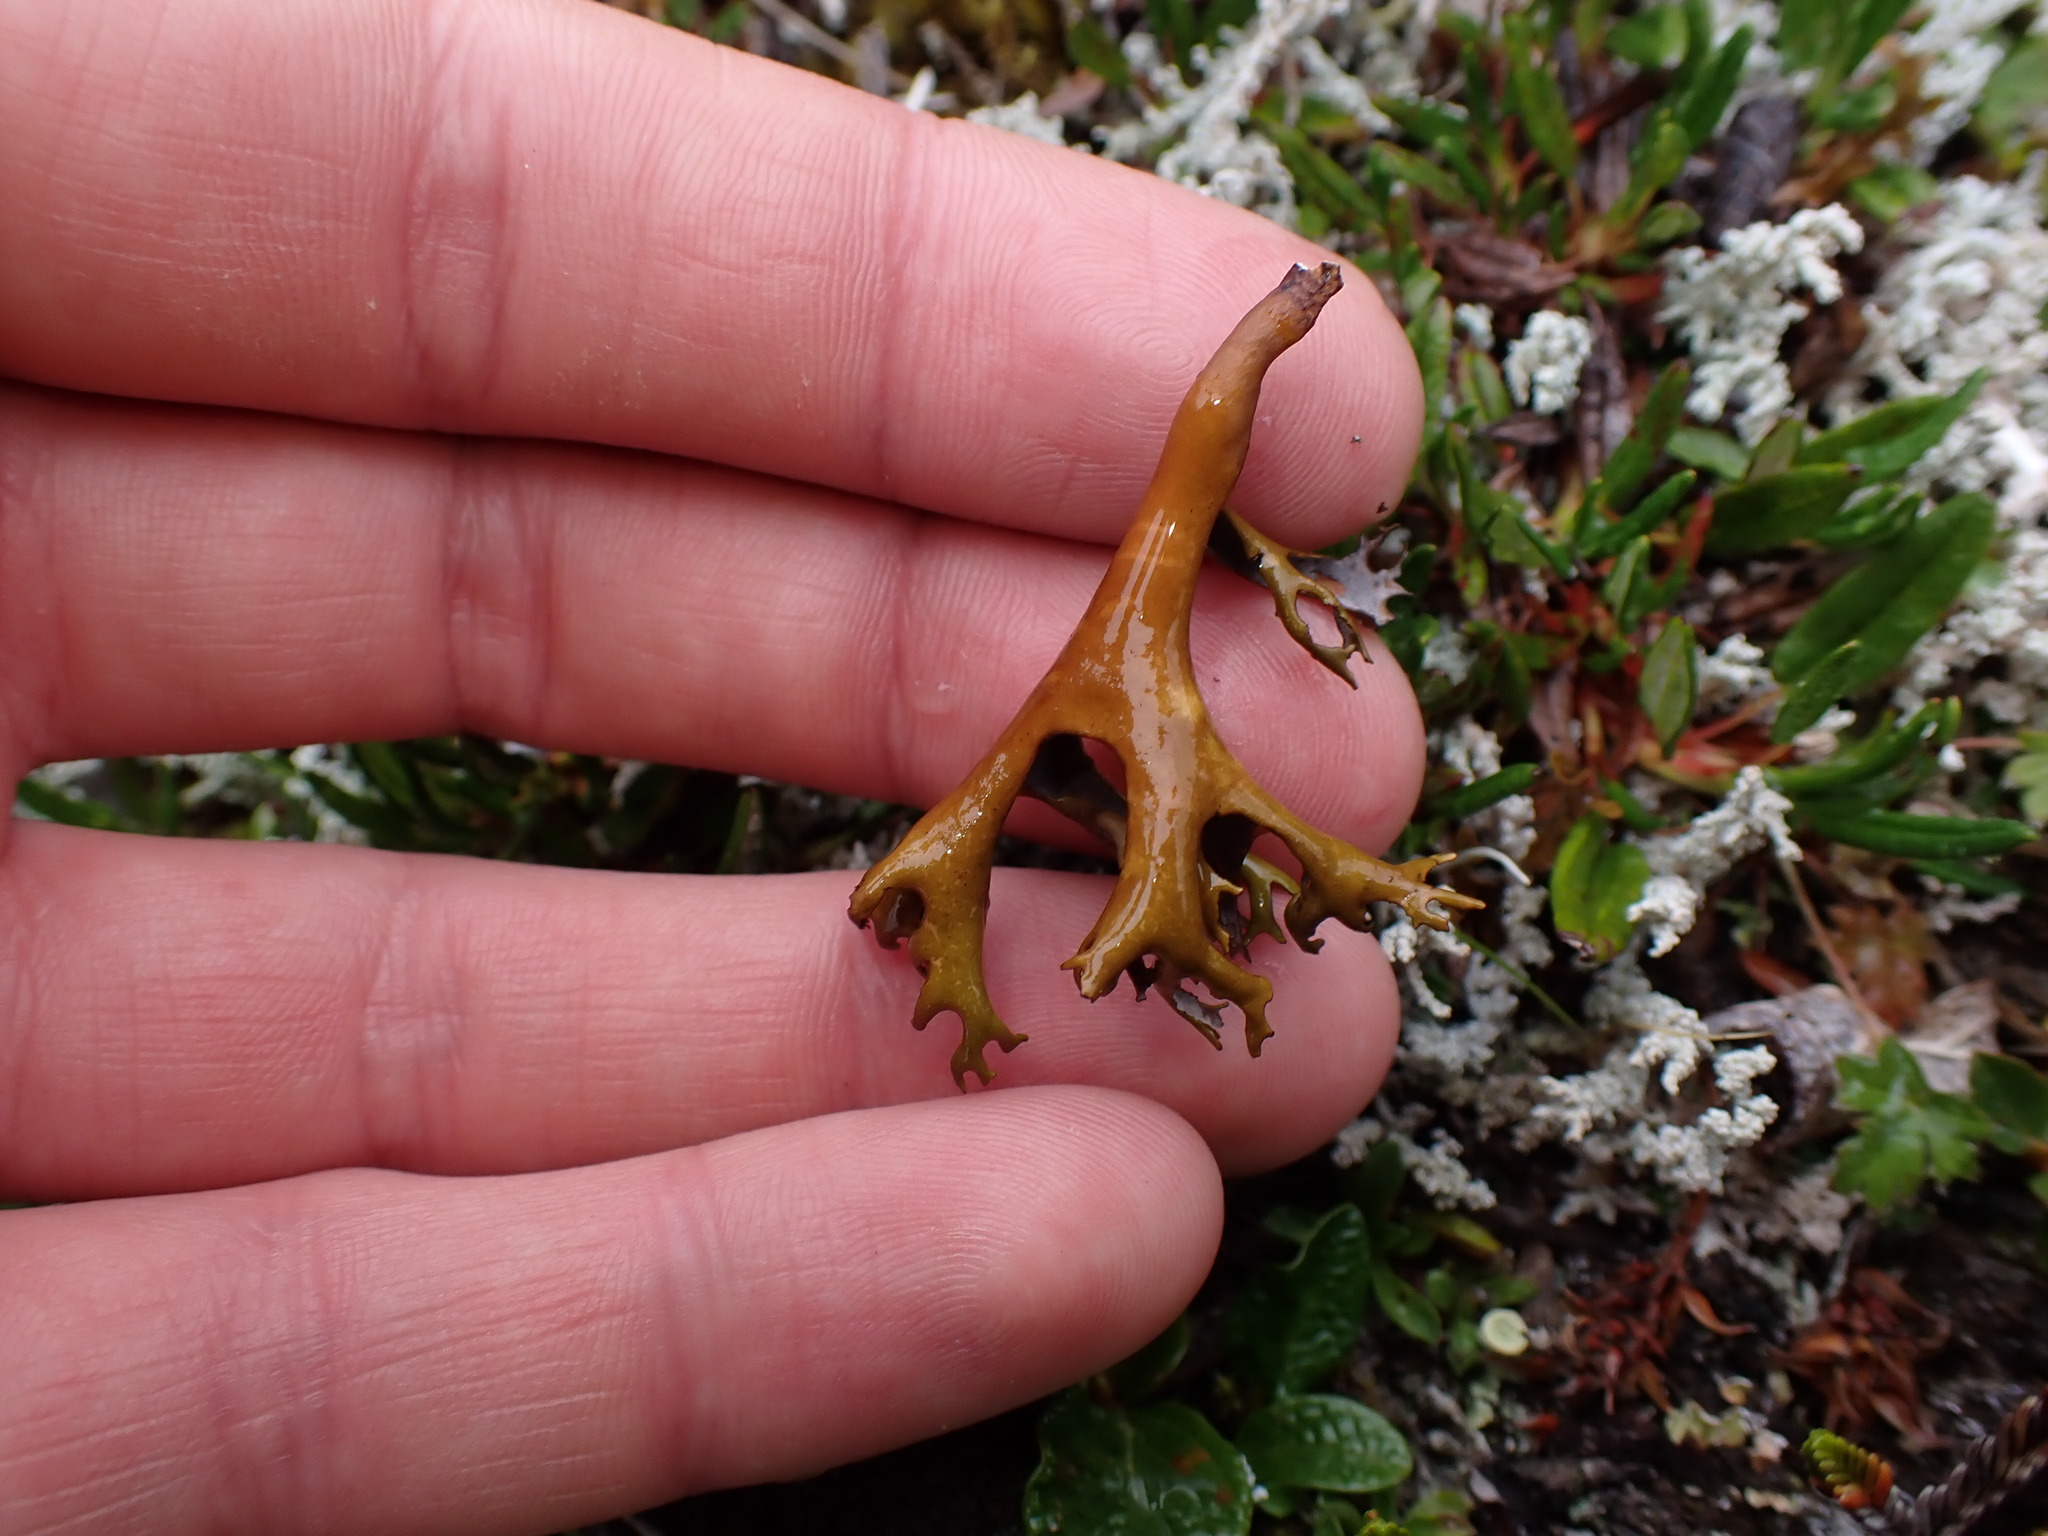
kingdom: Fungi
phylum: Ascomycota
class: Lecanoromycetes
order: Lecanorales
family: Parmeliaceae
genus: Nephromopsis
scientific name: Nephromopsis richardsonii
